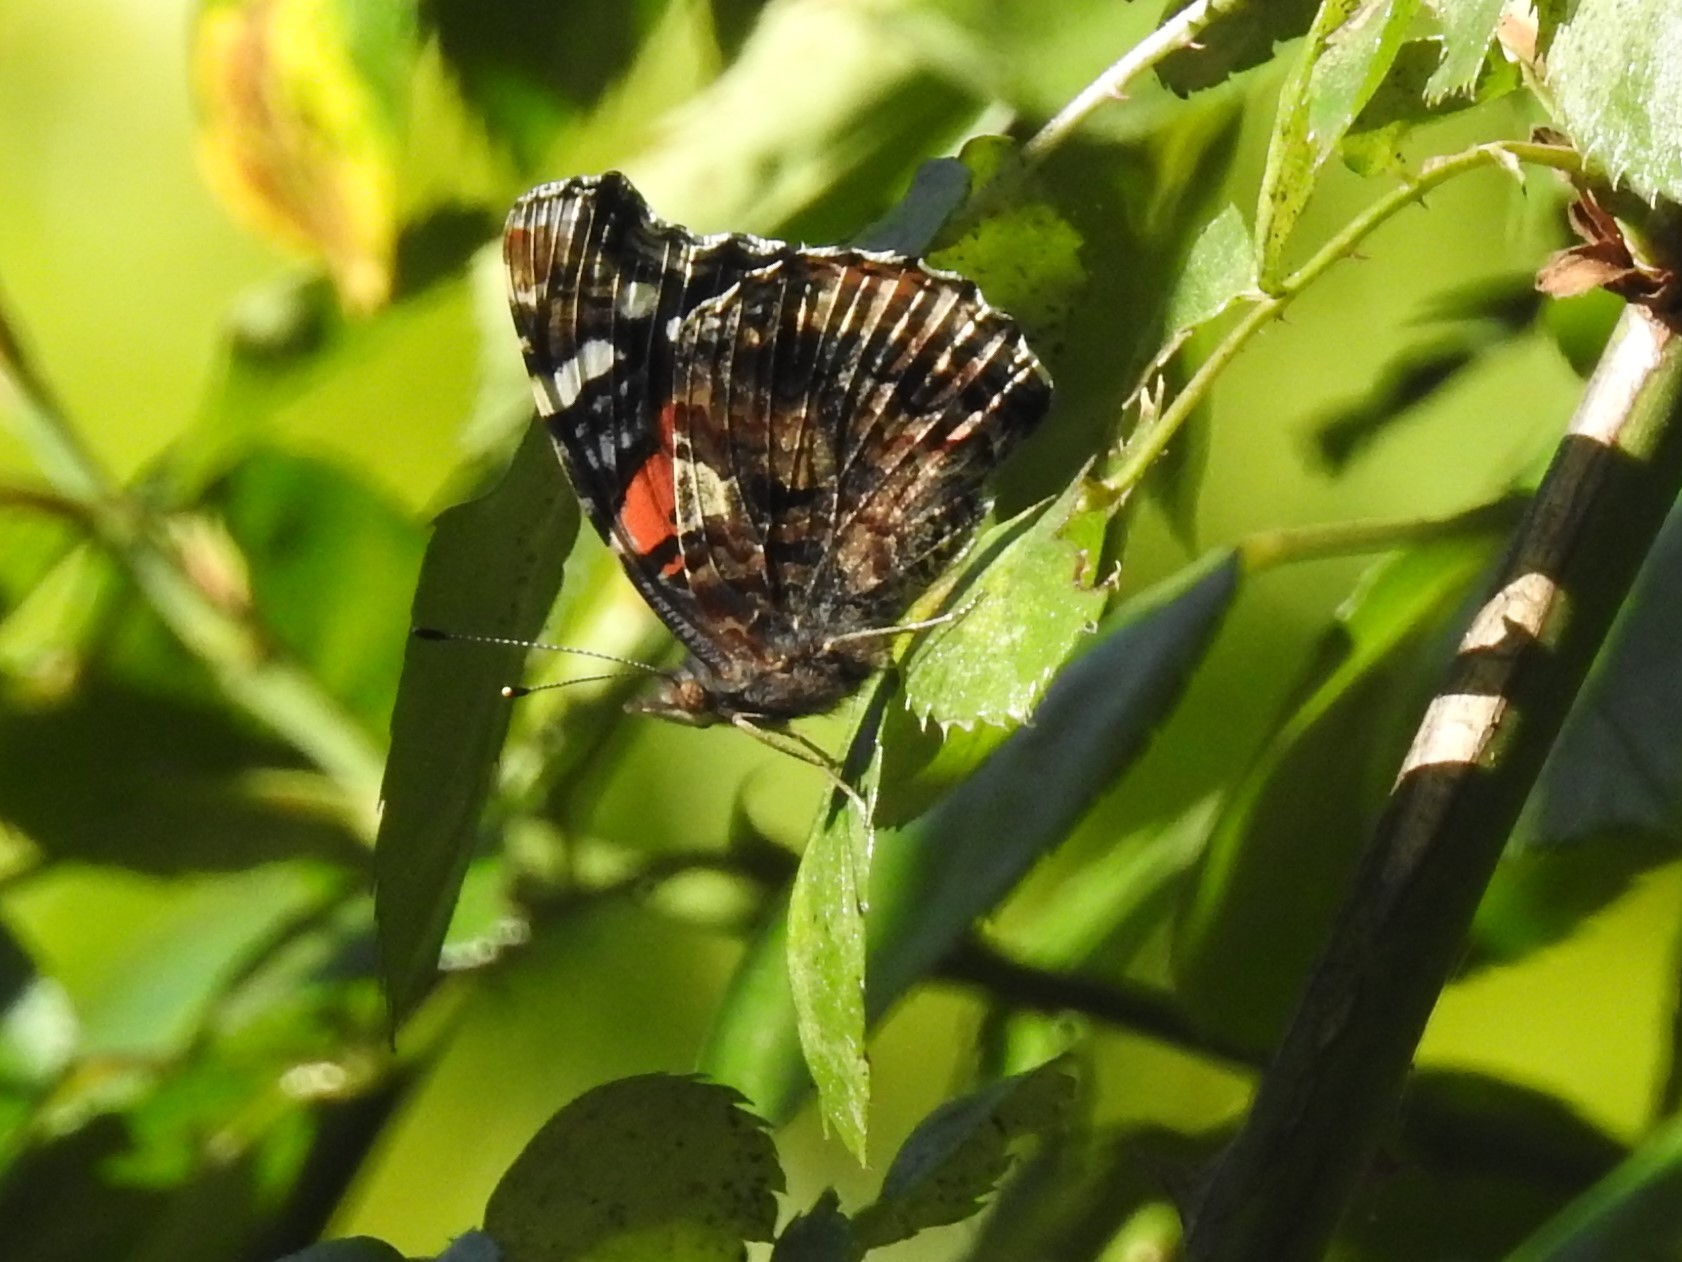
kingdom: Animalia
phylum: Arthropoda
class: Insecta
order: Lepidoptera
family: Nymphalidae
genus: Vanessa
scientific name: Vanessa atalanta
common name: Red admiral
